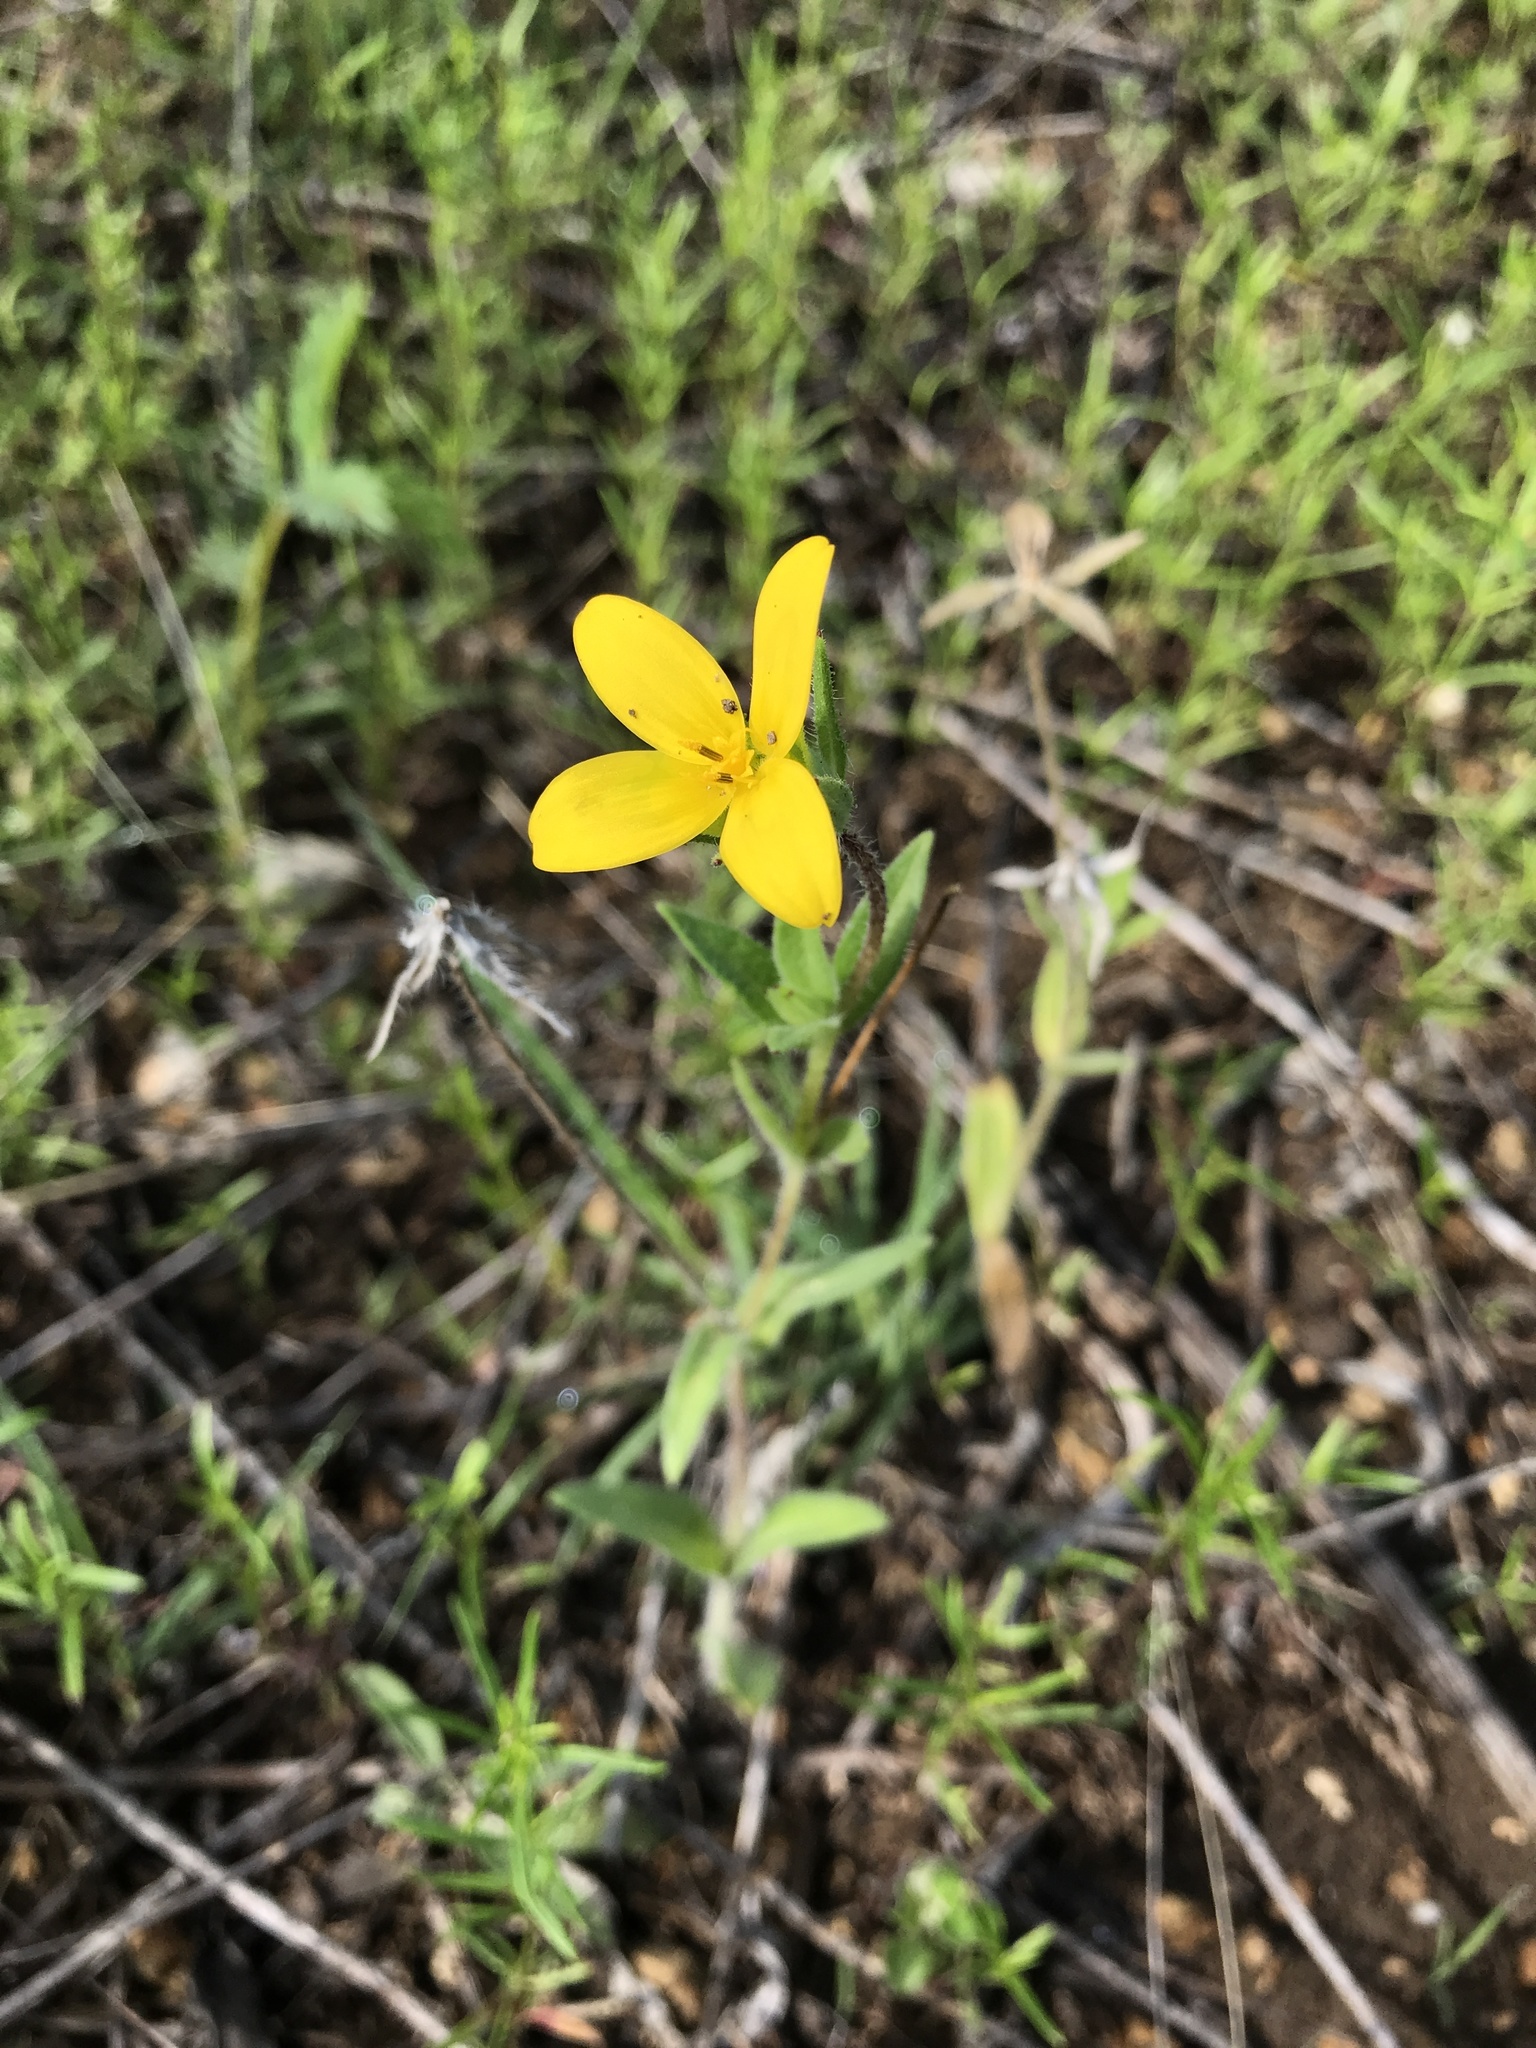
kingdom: Plantae
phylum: Tracheophyta
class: Magnoliopsida
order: Asterales
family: Asteraceae
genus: Lindheimera
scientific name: Lindheimera texana
